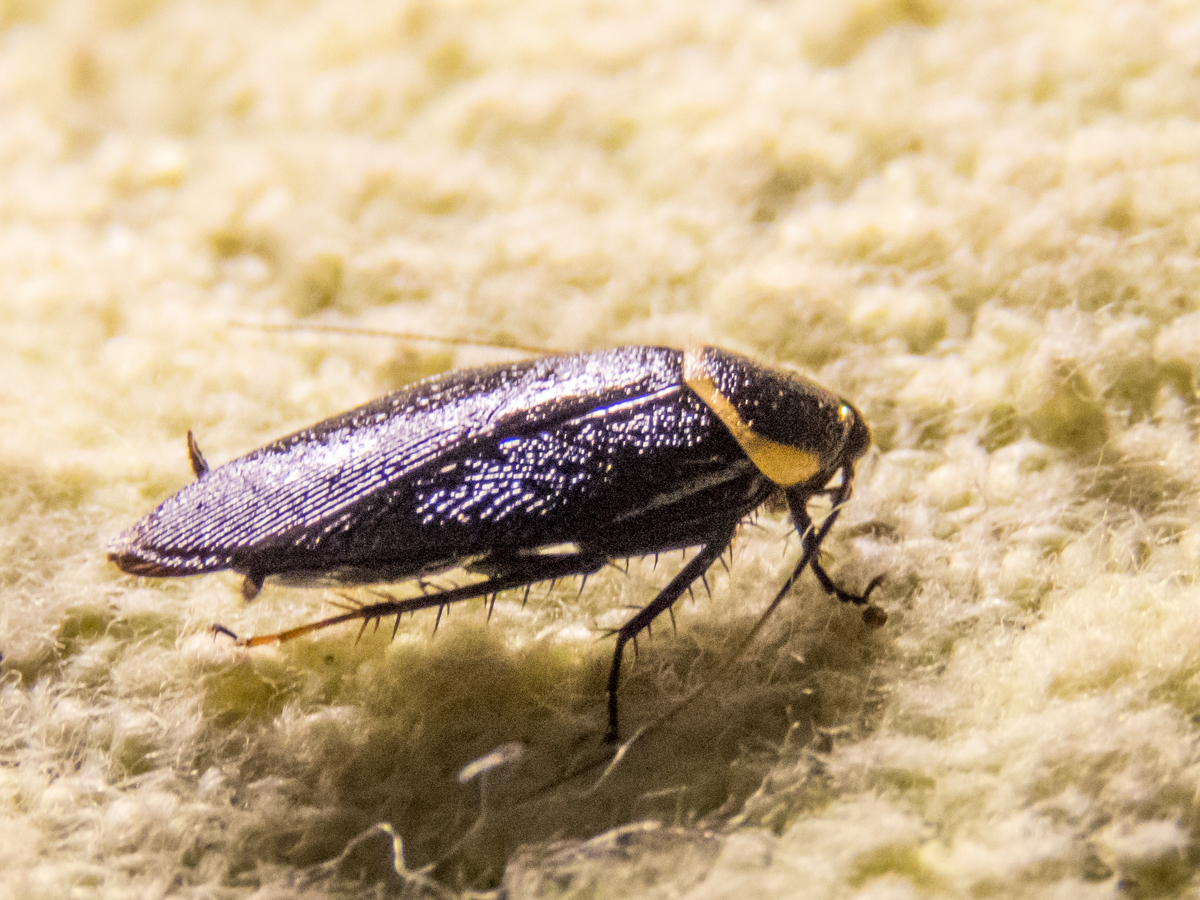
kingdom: Animalia
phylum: Arthropoda
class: Insecta
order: Blattodea
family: Ectobiidae
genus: Hemithyrsocera
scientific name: Hemithyrsocera palliata
